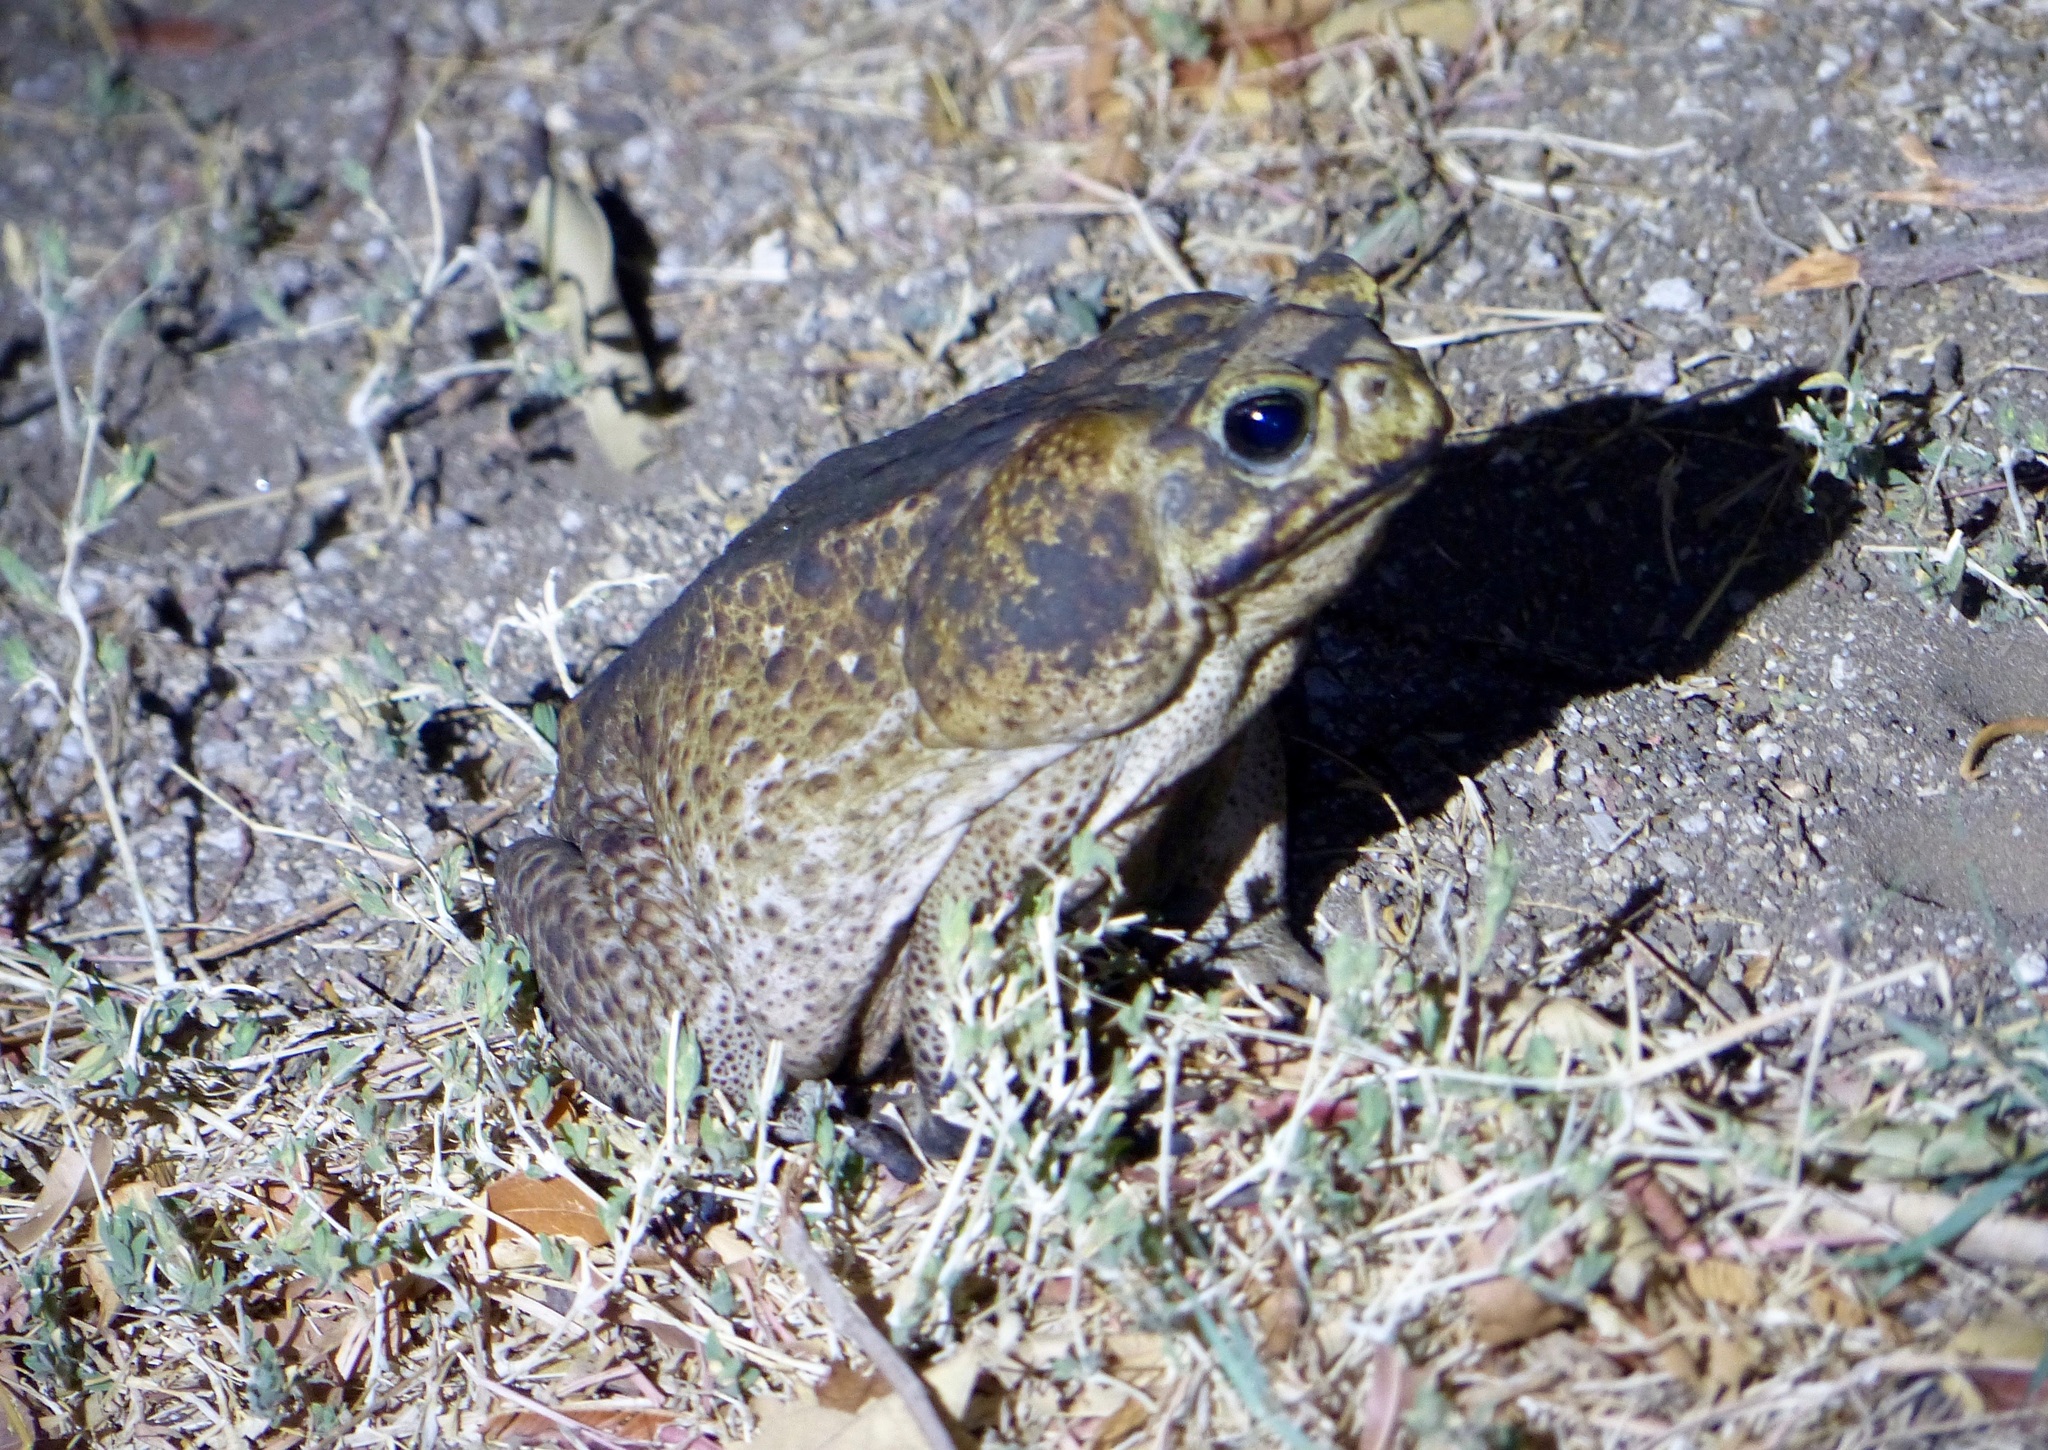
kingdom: Animalia
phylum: Chordata
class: Amphibia
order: Anura
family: Bufonidae
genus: Rhinella
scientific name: Rhinella horribilis
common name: Mesoamerican cane toad
